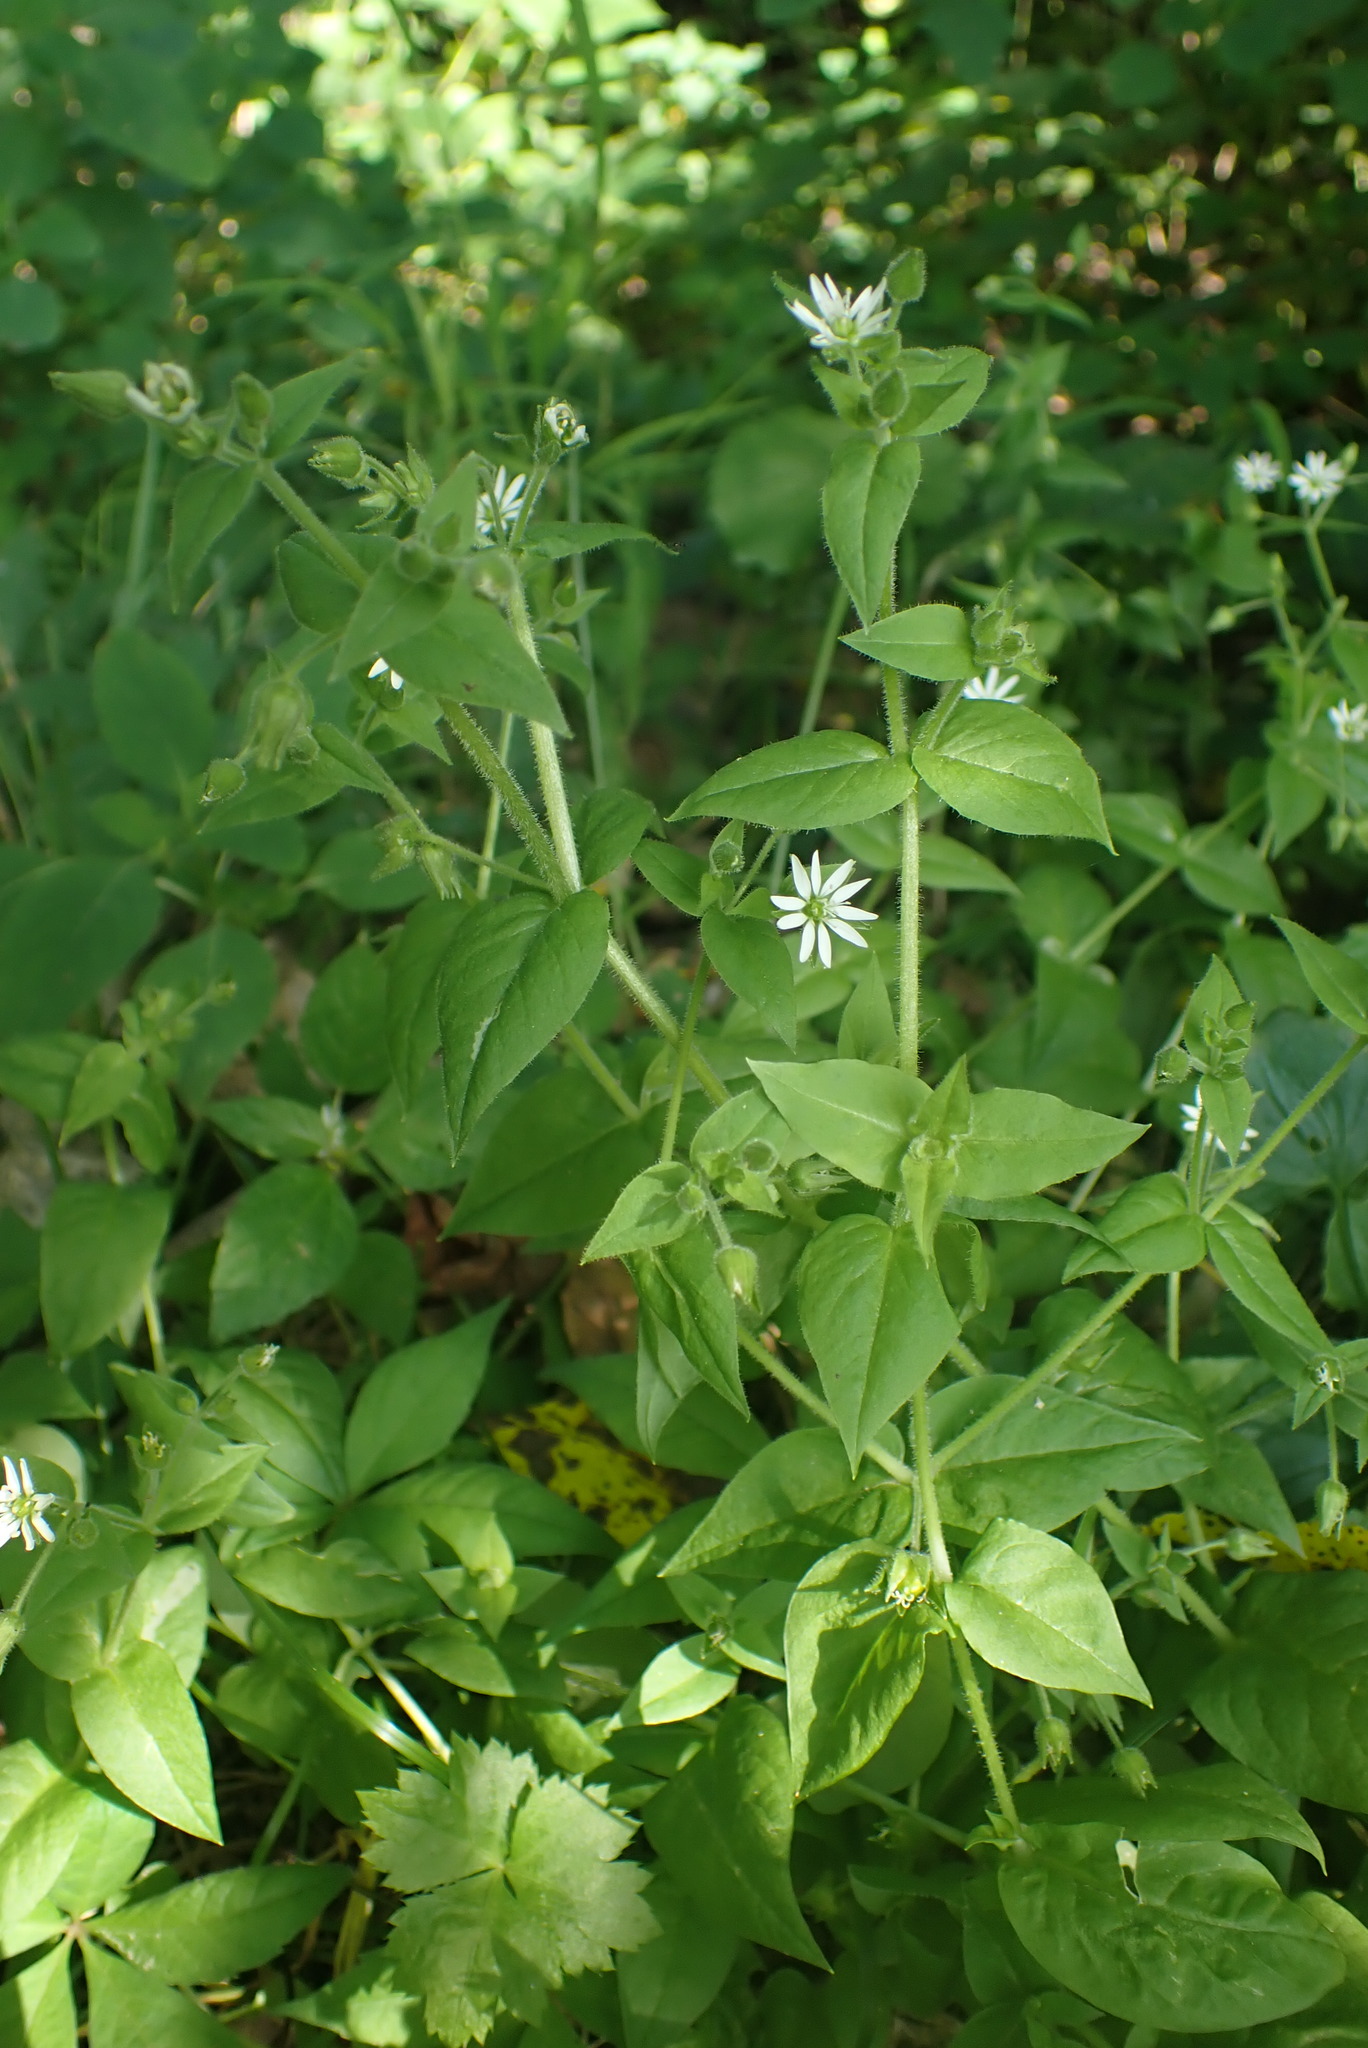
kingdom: Plantae
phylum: Tracheophyta
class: Magnoliopsida
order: Caryophyllales
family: Caryophyllaceae
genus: Stellaria
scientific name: Stellaria aquatica
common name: Water chickweed
